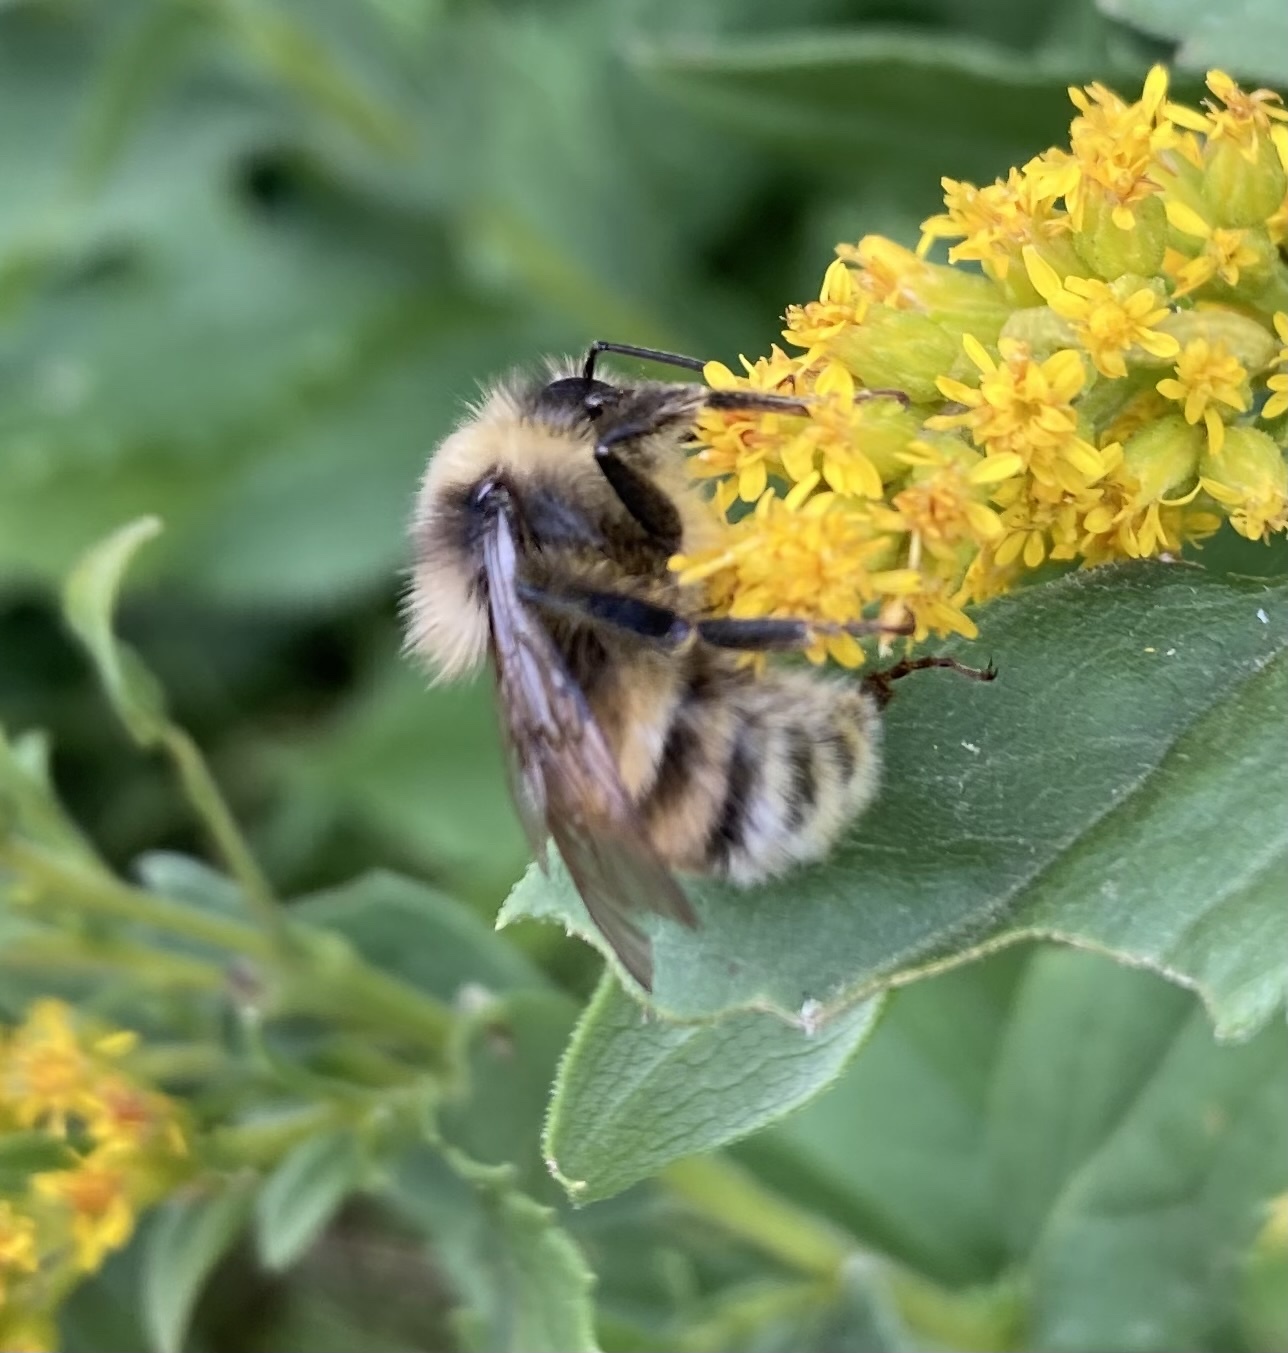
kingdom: Animalia
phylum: Arthropoda
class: Insecta
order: Hymenoptera
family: Apidae
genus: Bombus
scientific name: Bombus occidentalis
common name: Western bumble bee
